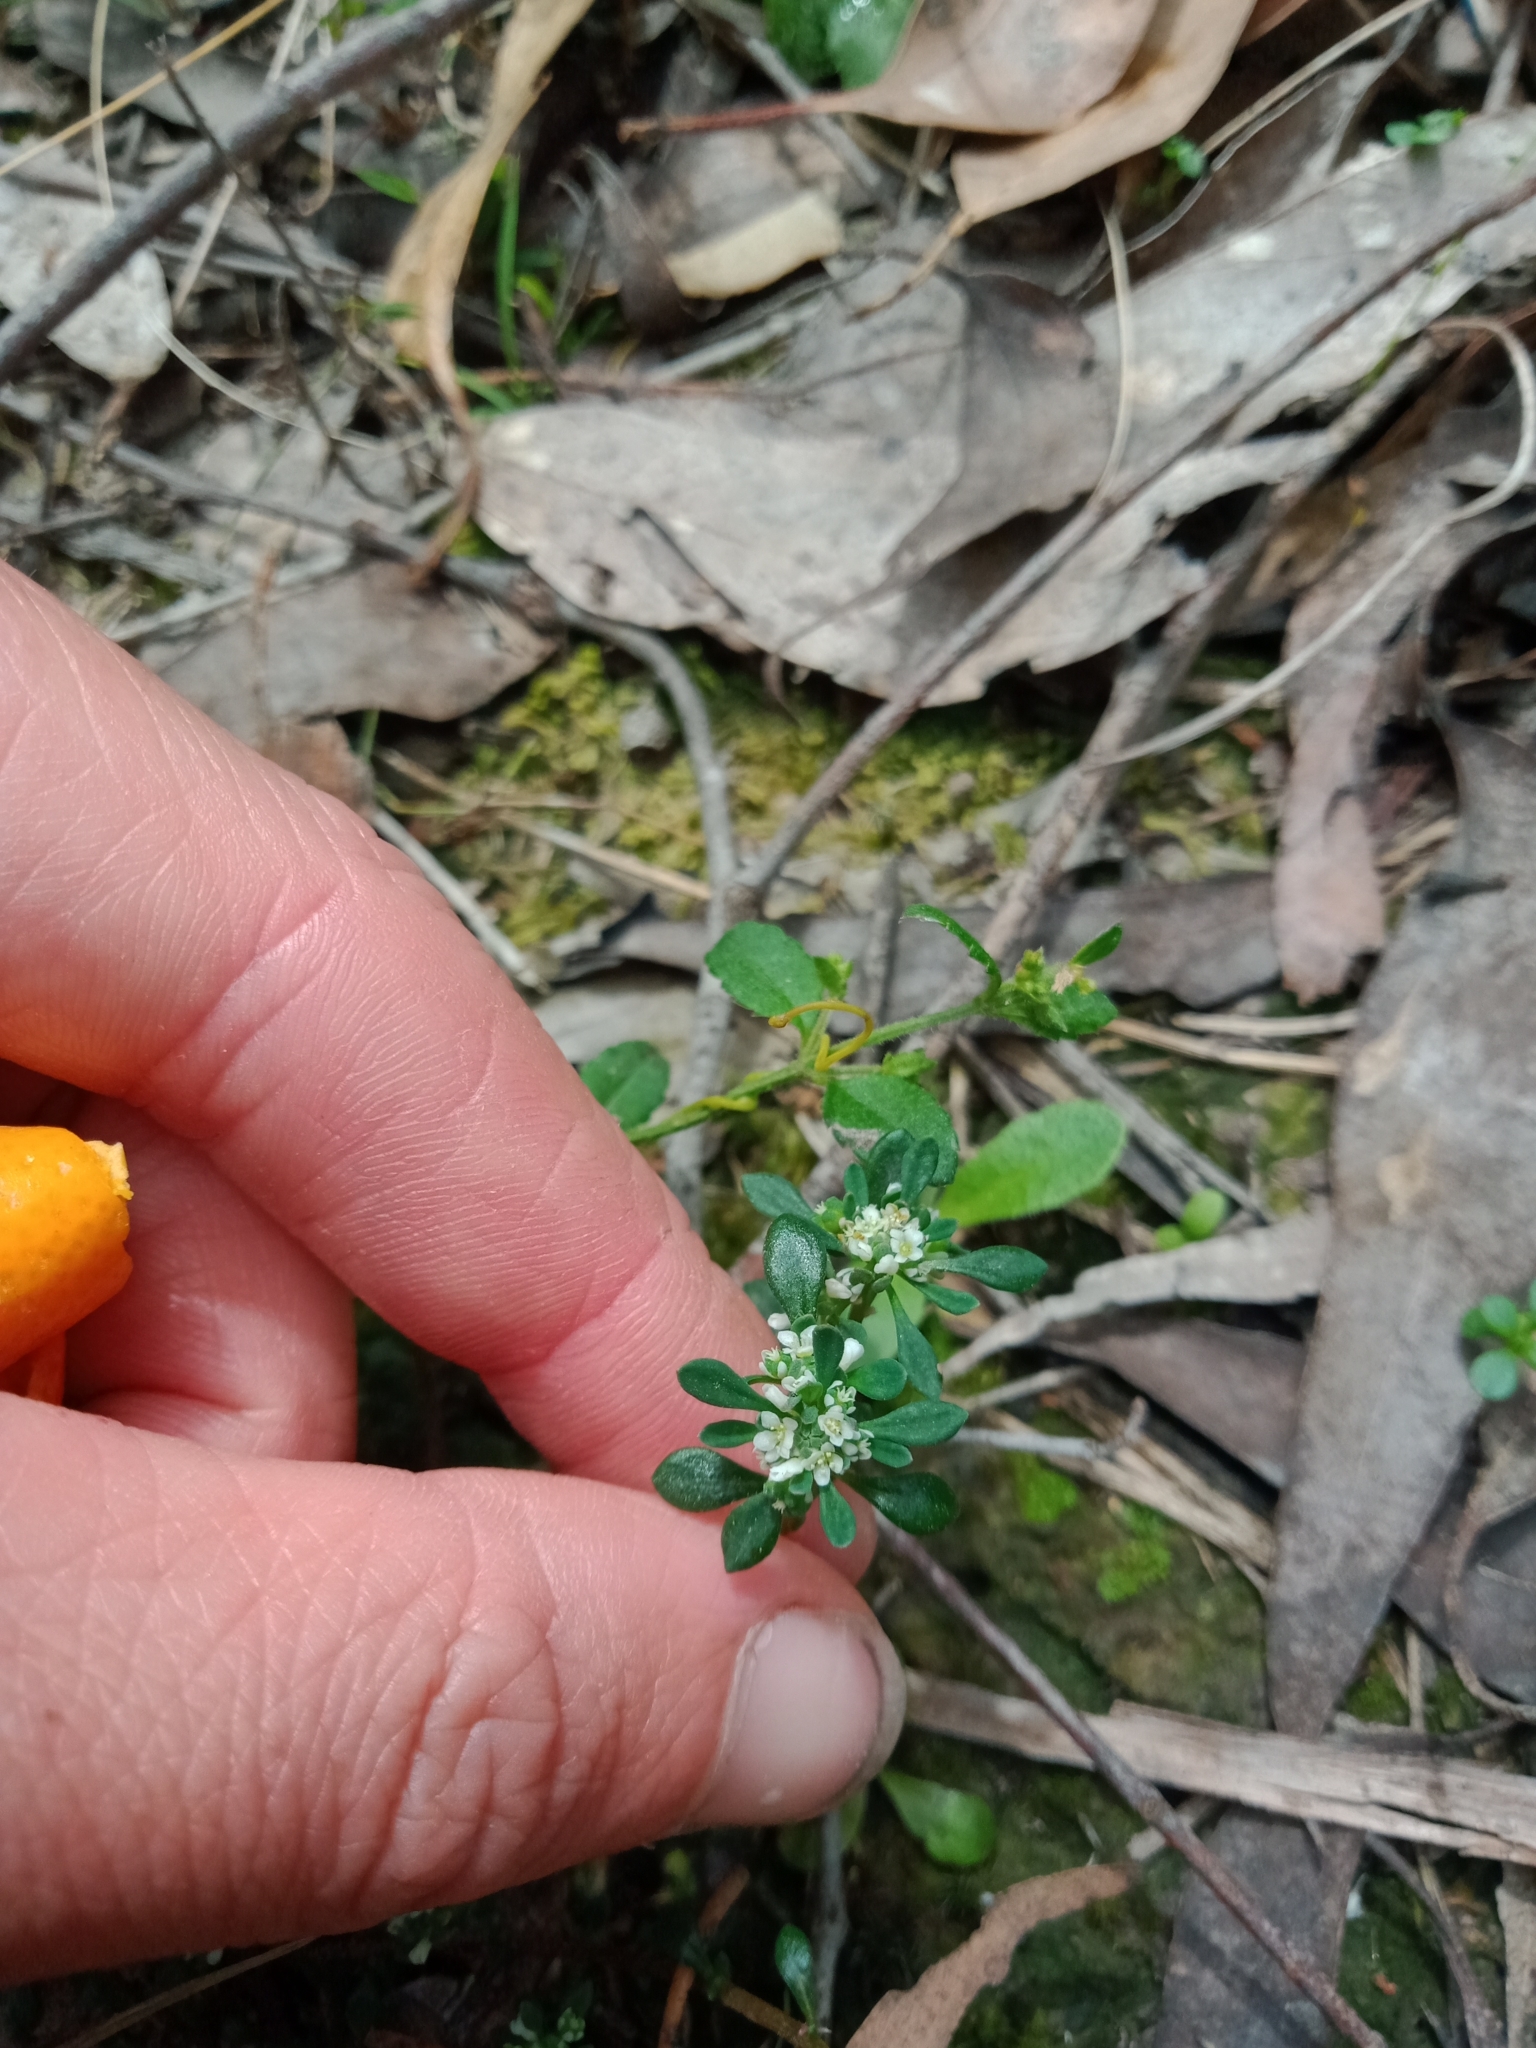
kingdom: Plantae
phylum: Tracheophyta
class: Magnoliopsida
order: Malpighiales
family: Phyllanthaceae
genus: Poranthera
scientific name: Poranthera microphylla
